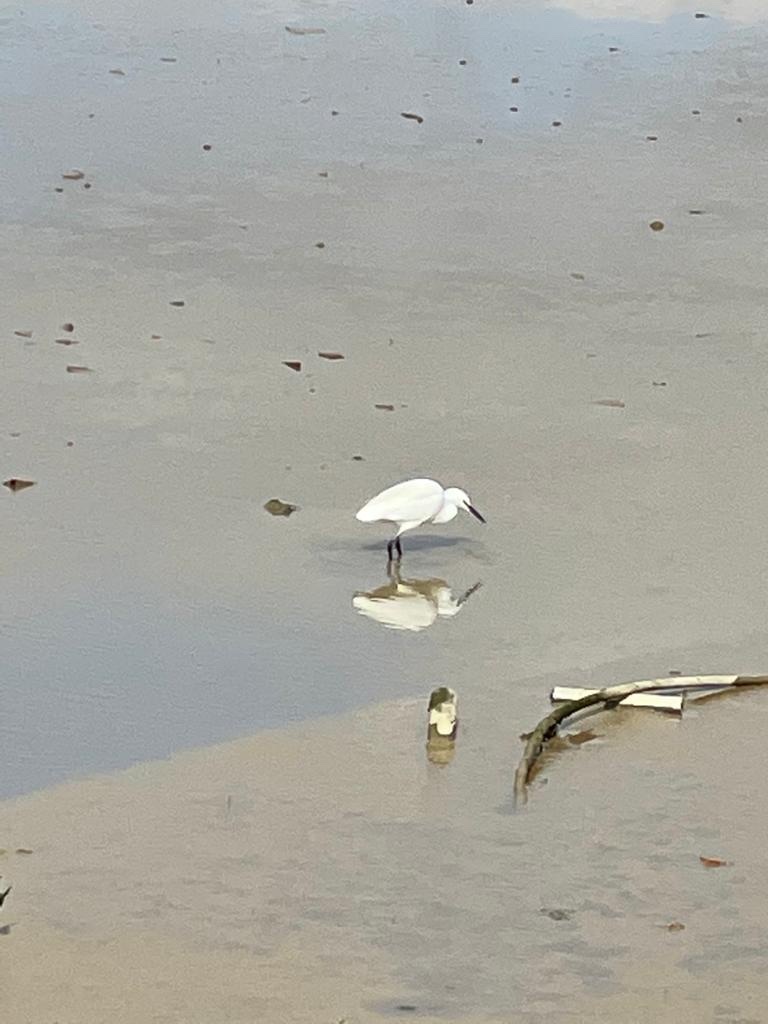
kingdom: Animalia
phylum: Chordata
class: Aves
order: Pelecaniformes
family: Ardeidae
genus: Egretta
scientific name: Egretta garzetta
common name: Little egret
